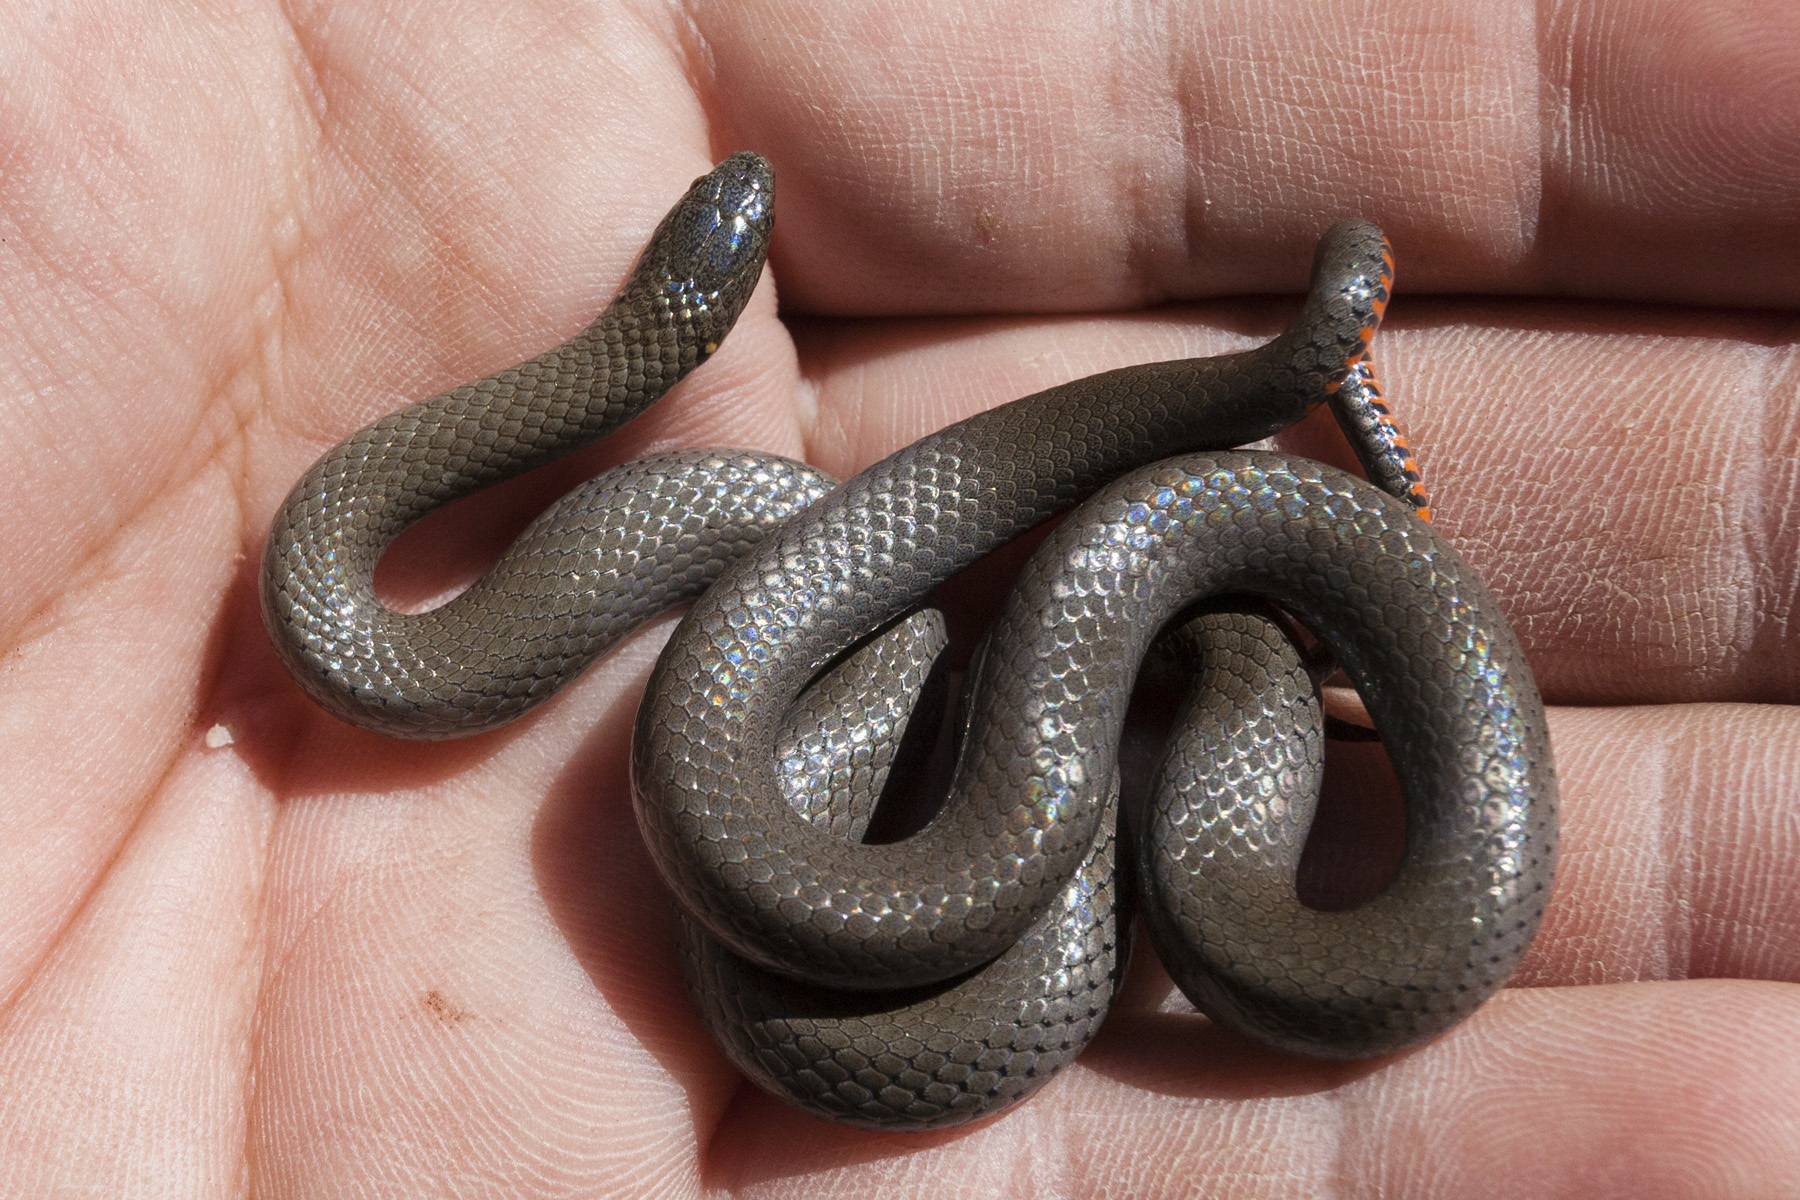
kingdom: Animalia
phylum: Chordata
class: Squamata
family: Colubridae
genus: Diadophis
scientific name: Diadophis punctatus
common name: Ringneck snake
